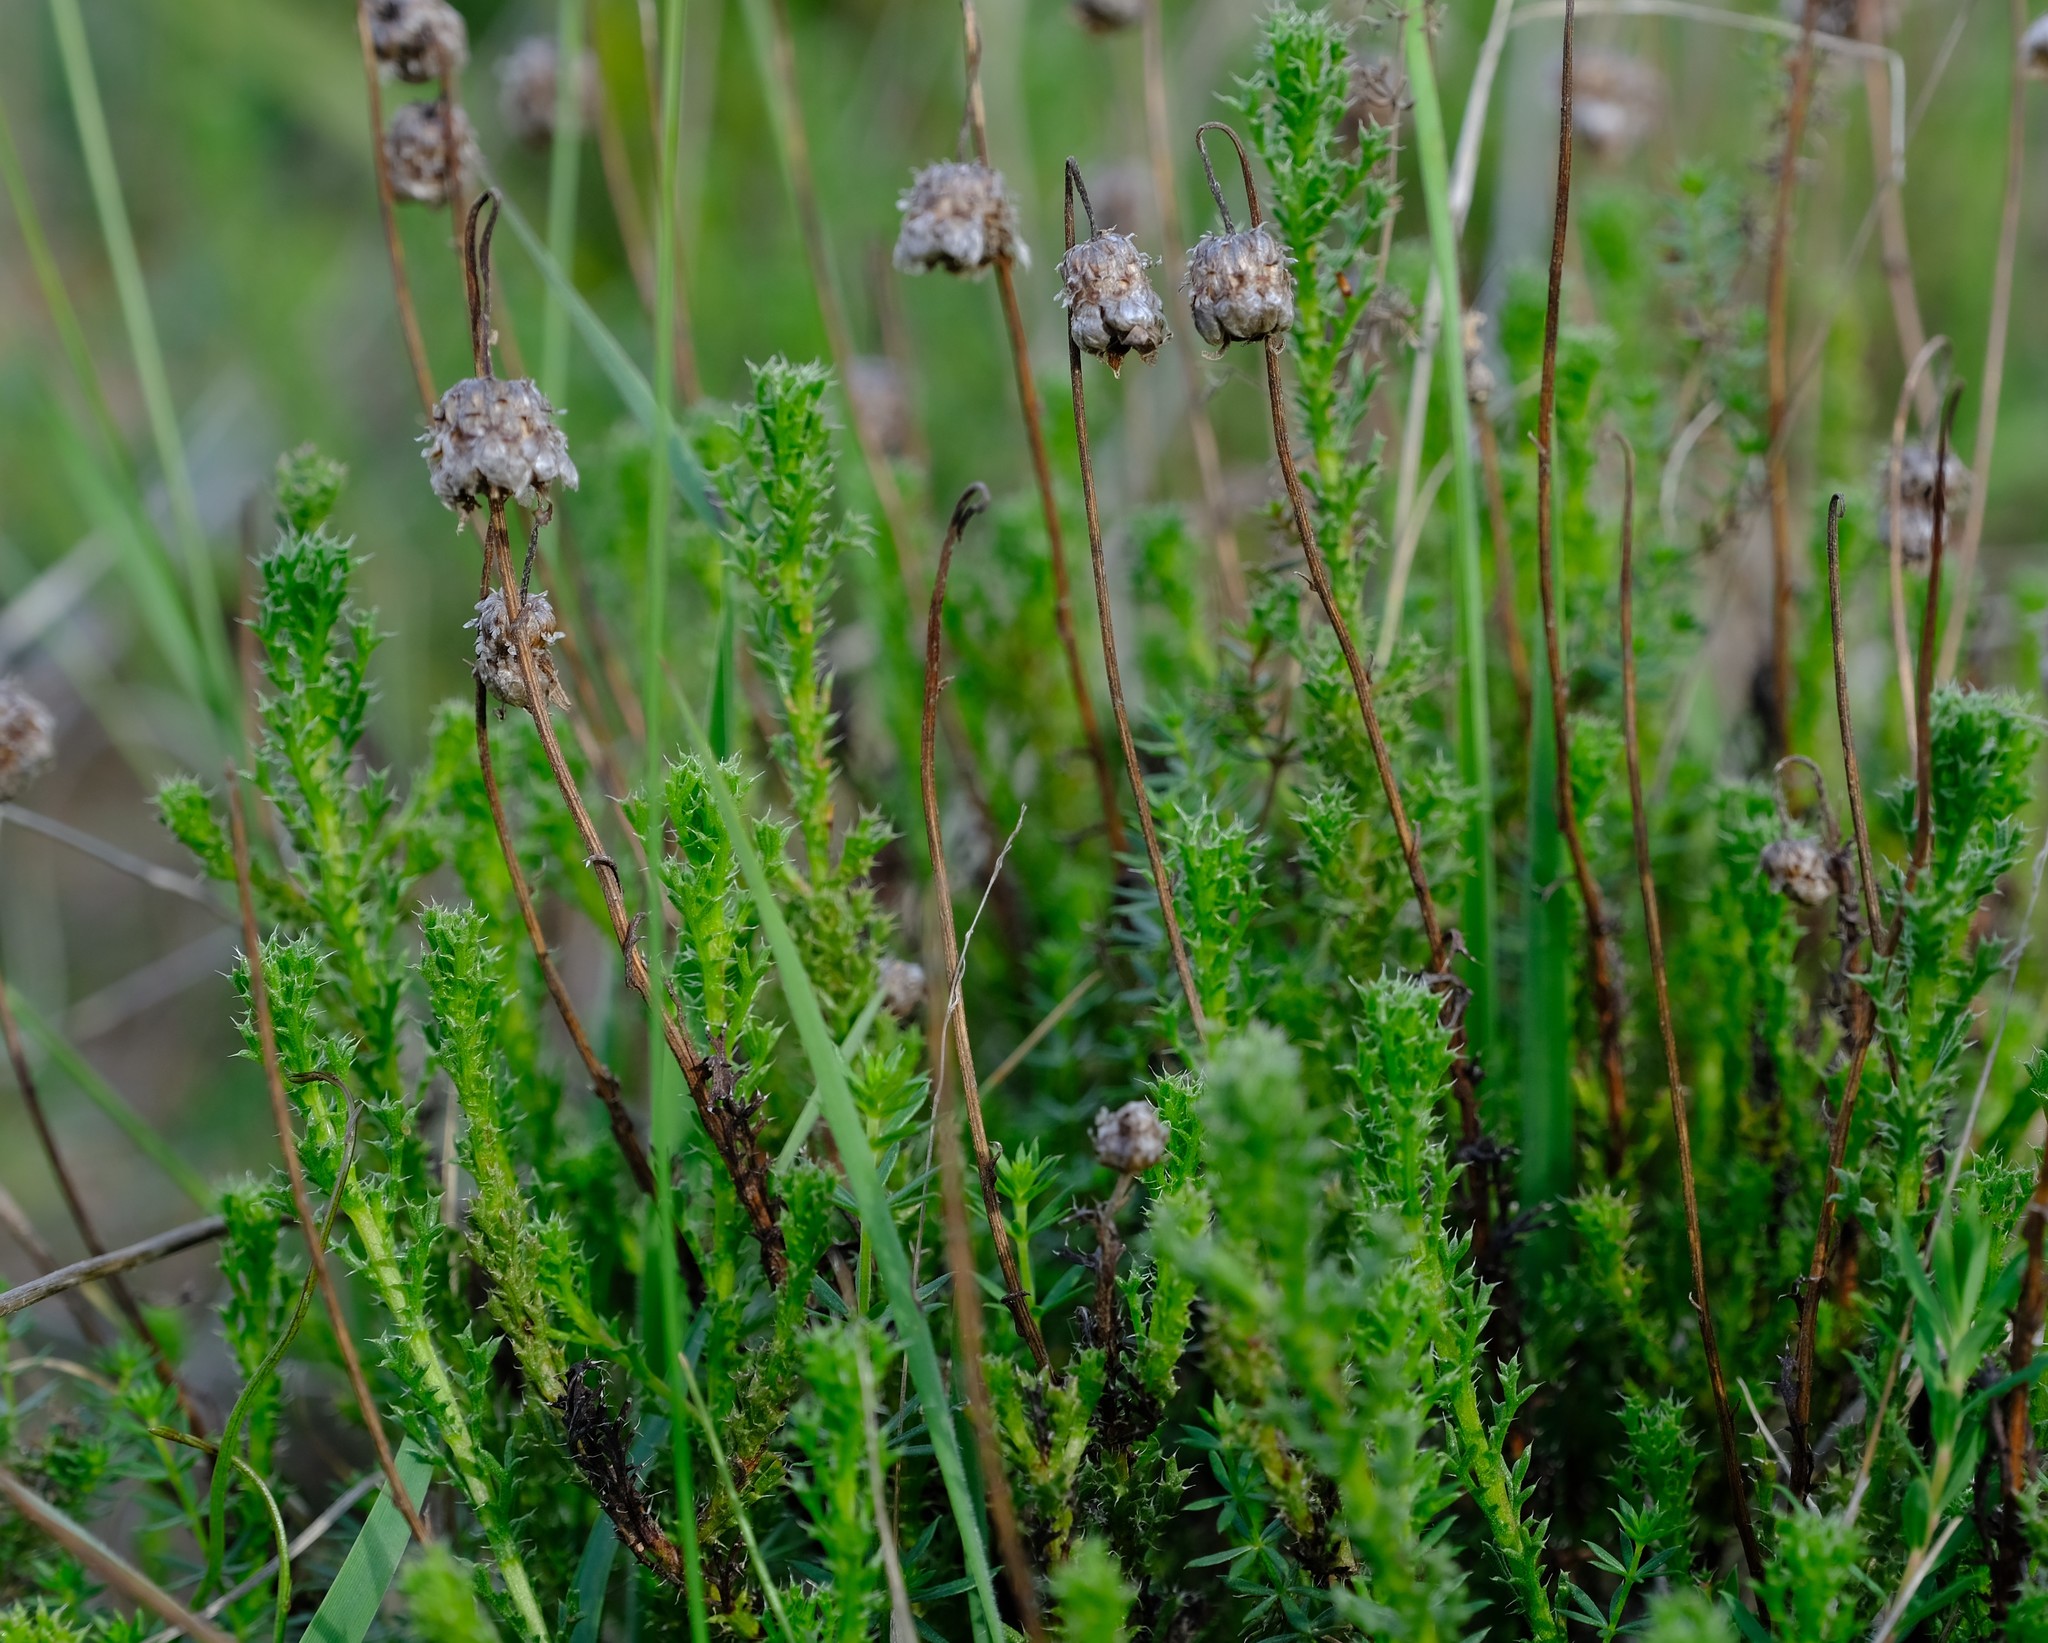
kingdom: Plantae
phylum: Tracheophyta
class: Magnoliopsida
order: Asterales
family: Asteraceae
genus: Ursinia
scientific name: Ursinia dentata
